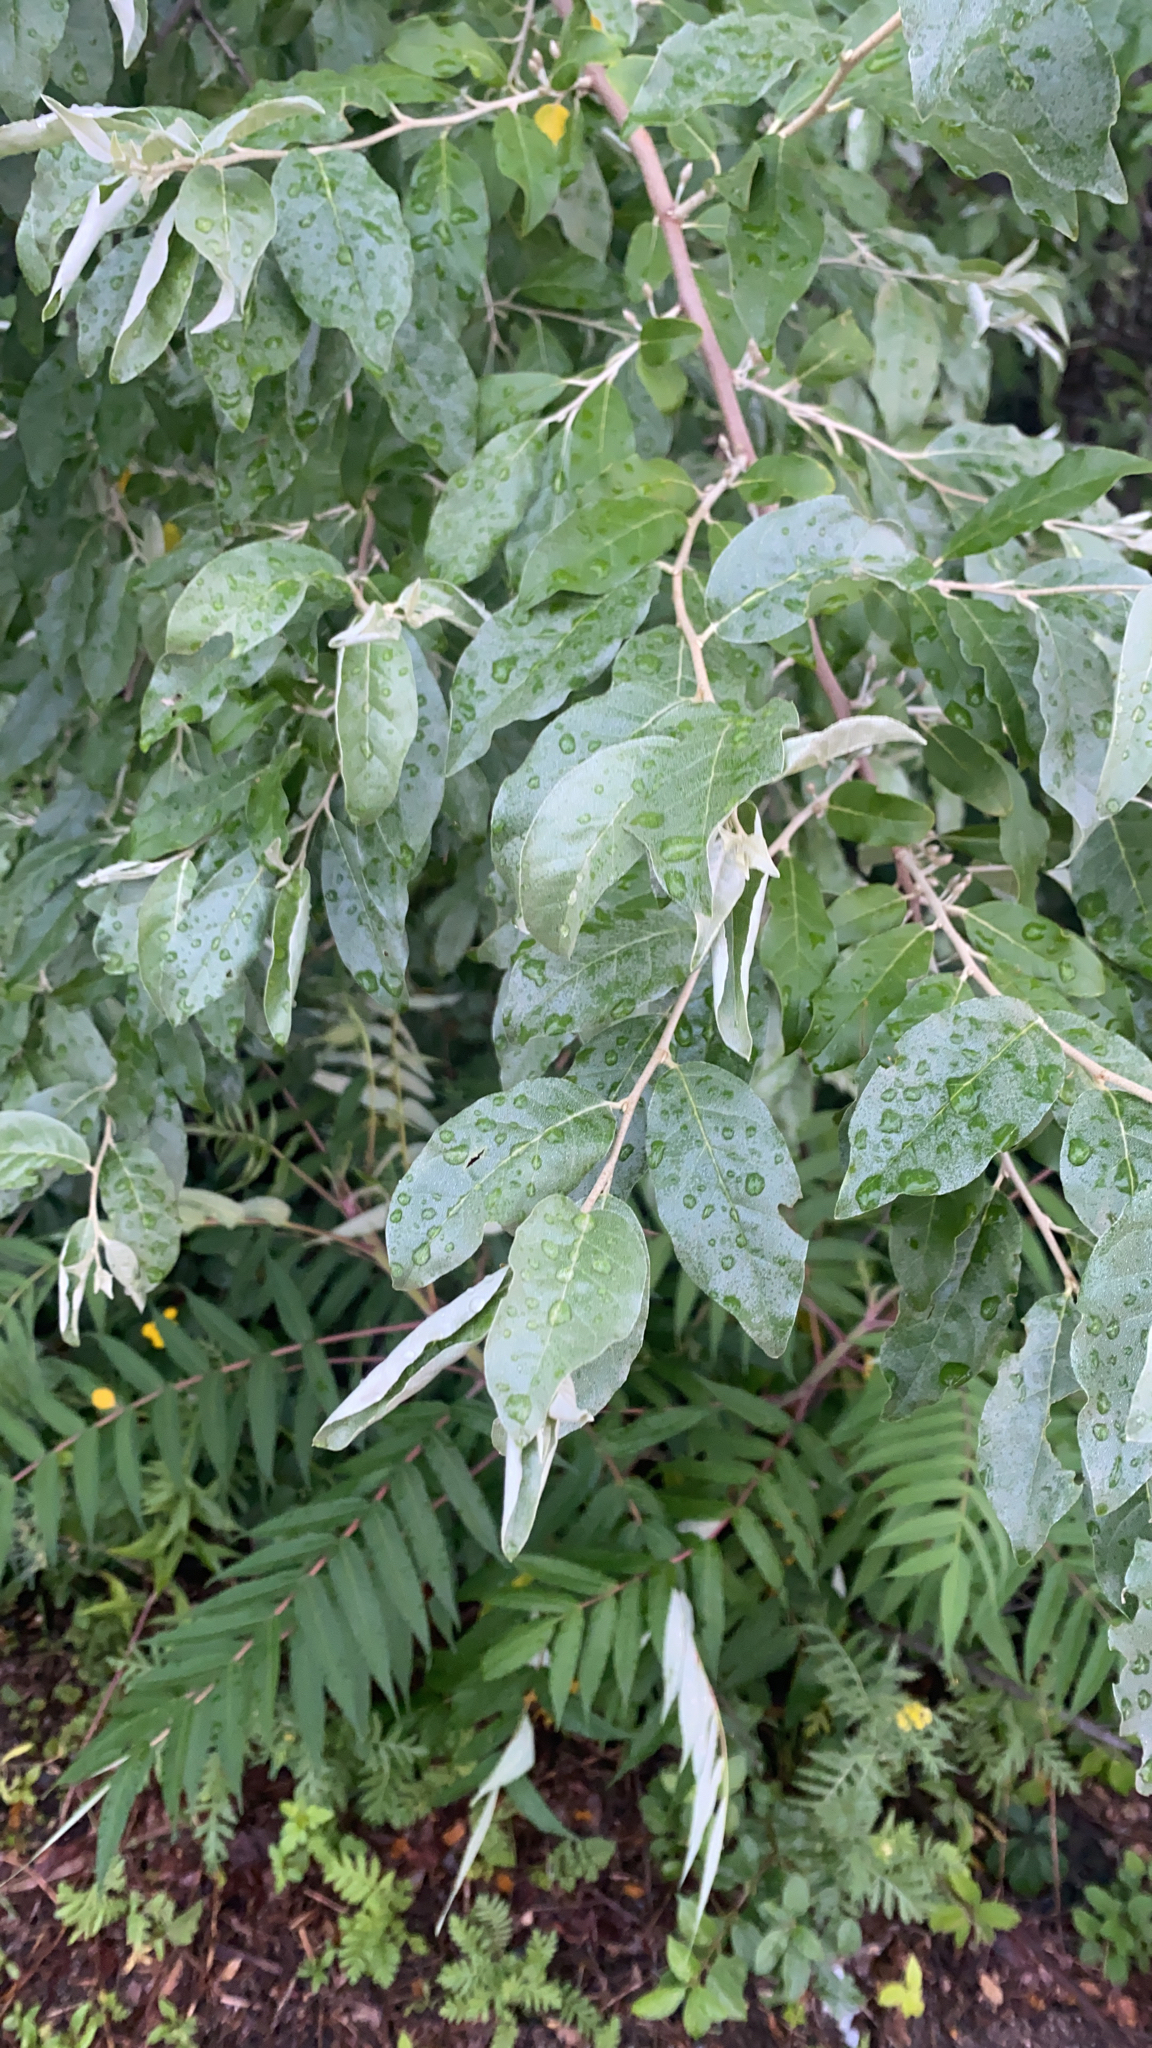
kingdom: Plantae
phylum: Tracheophyta
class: Magnoliopsida
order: Rosales
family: Elaeagnaceae
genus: Elaeagnus
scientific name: Elaeagnus umbellata
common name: Autumn olive
